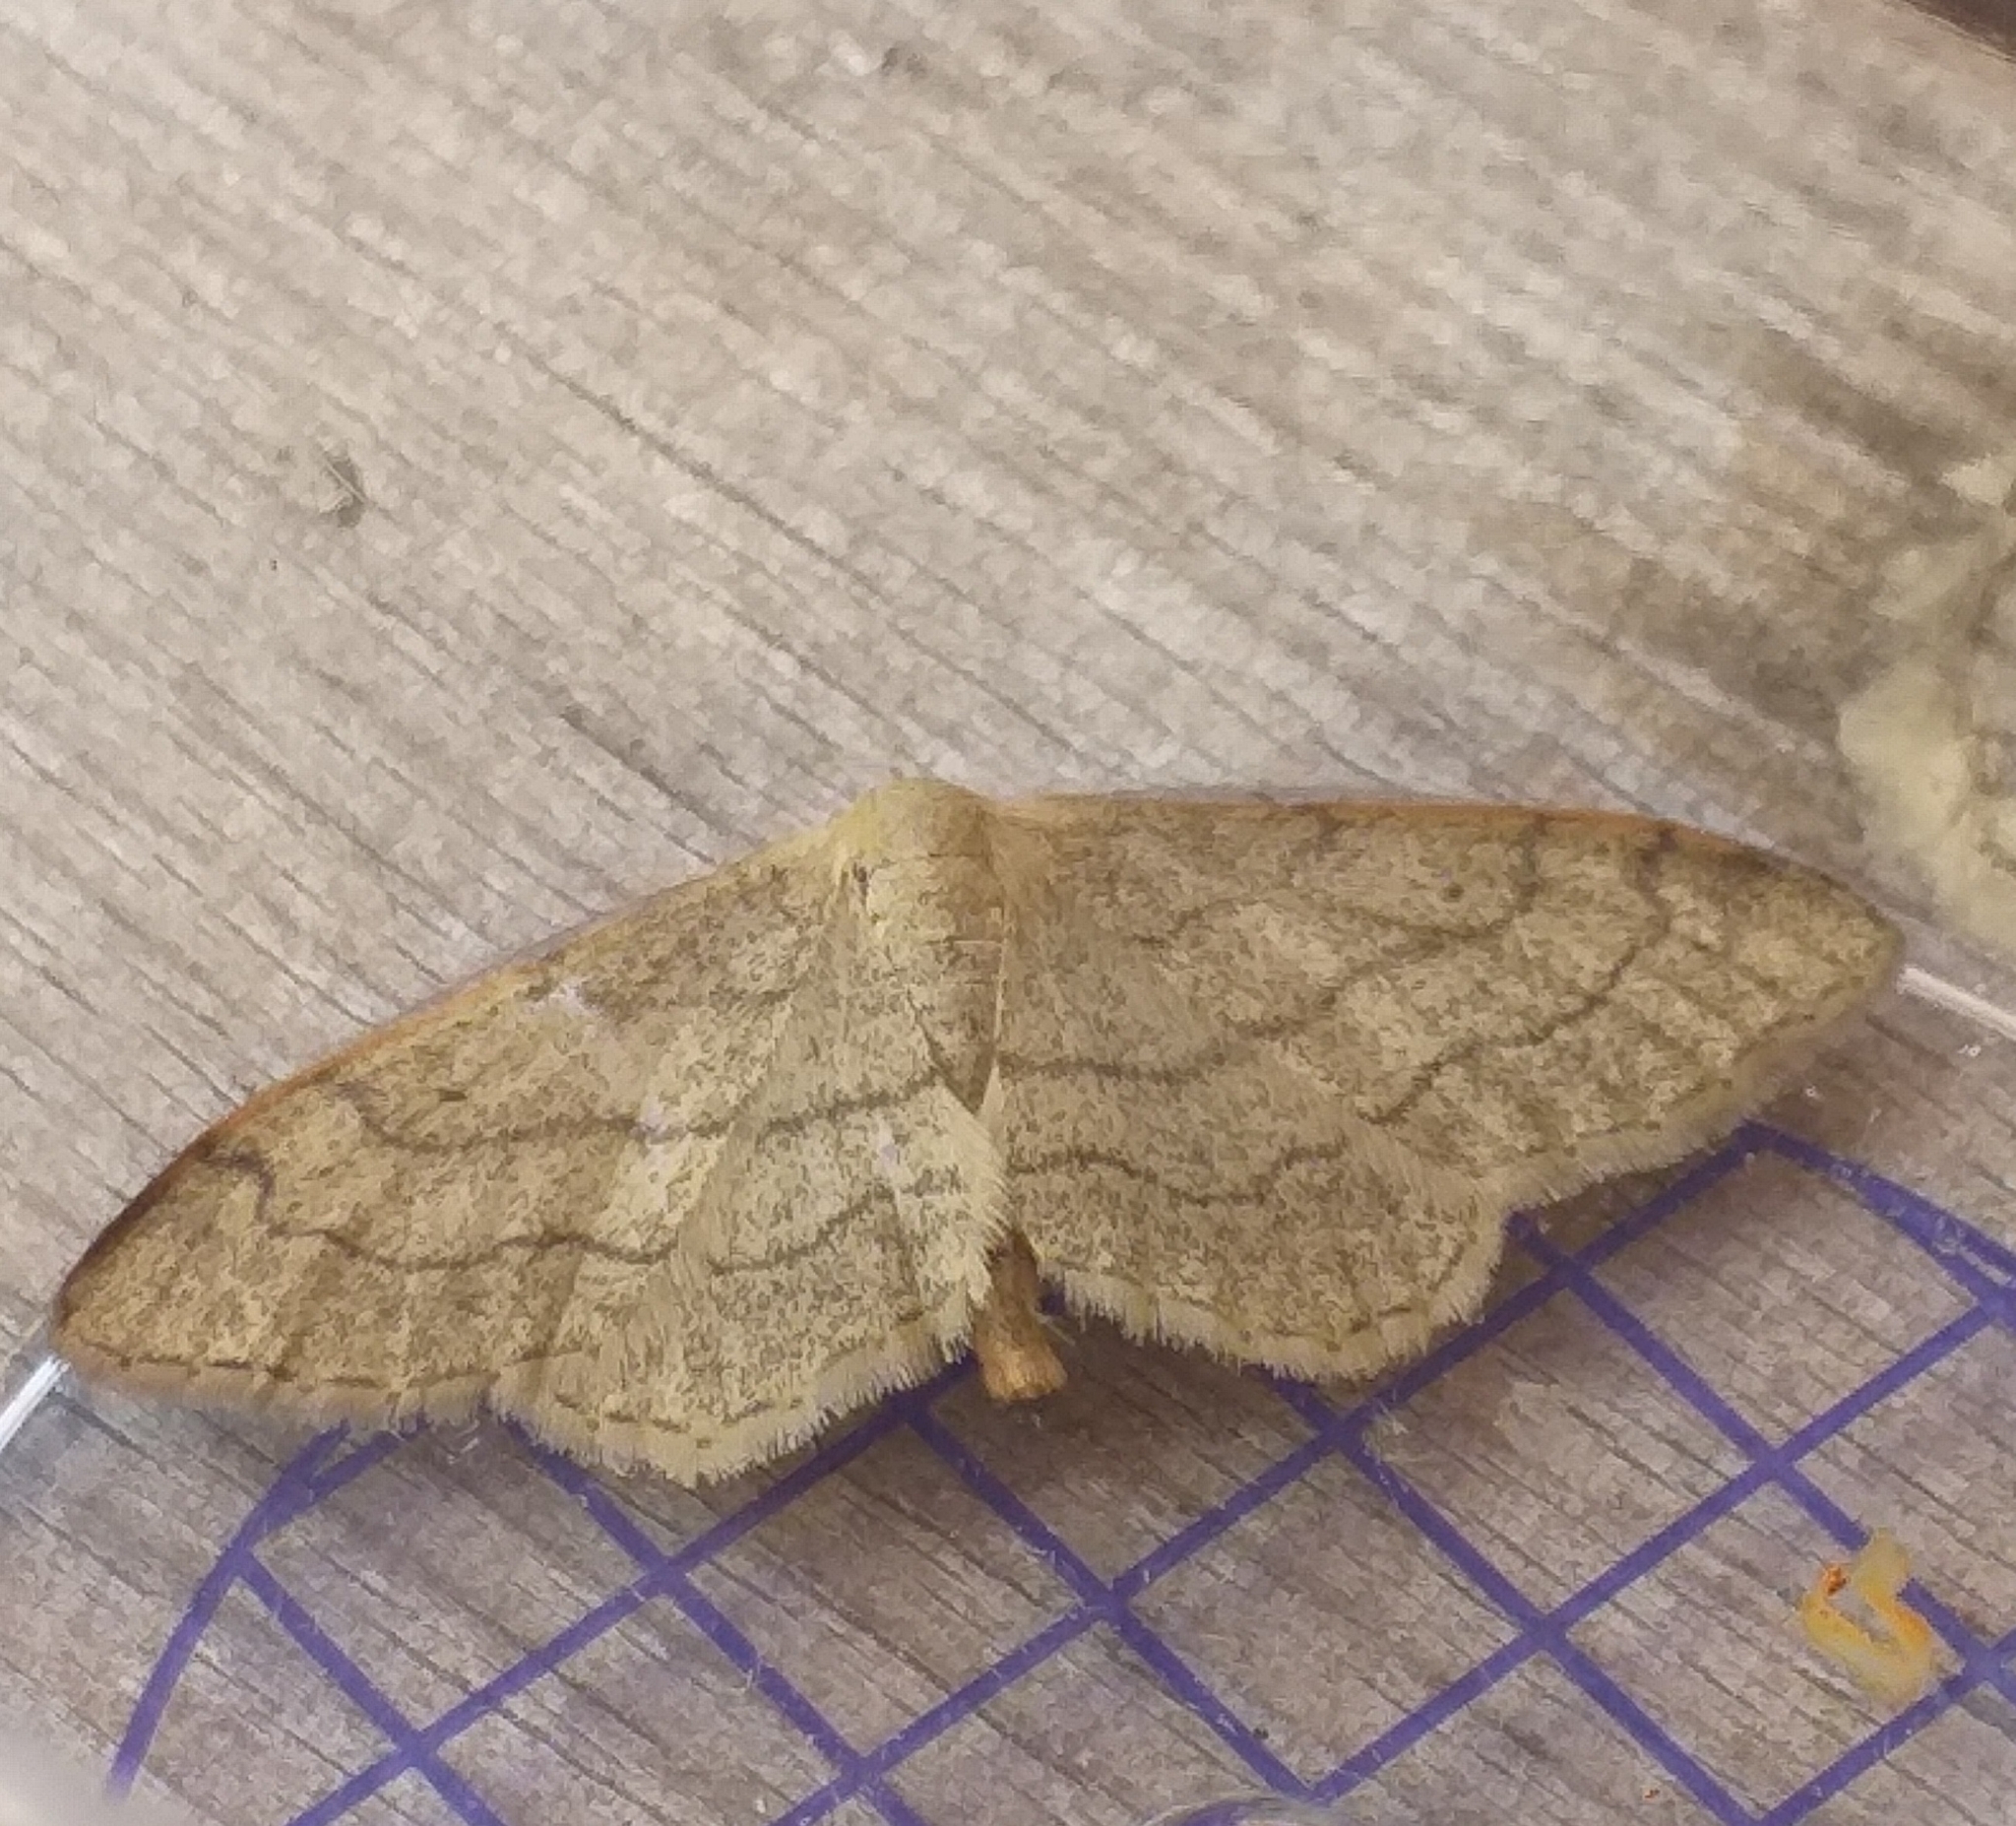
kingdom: Animalia
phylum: Arthropoda
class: Insecta
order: Lepidoptera
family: Geometridae
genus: Idaea
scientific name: Idaea aversata
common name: Riband wave
